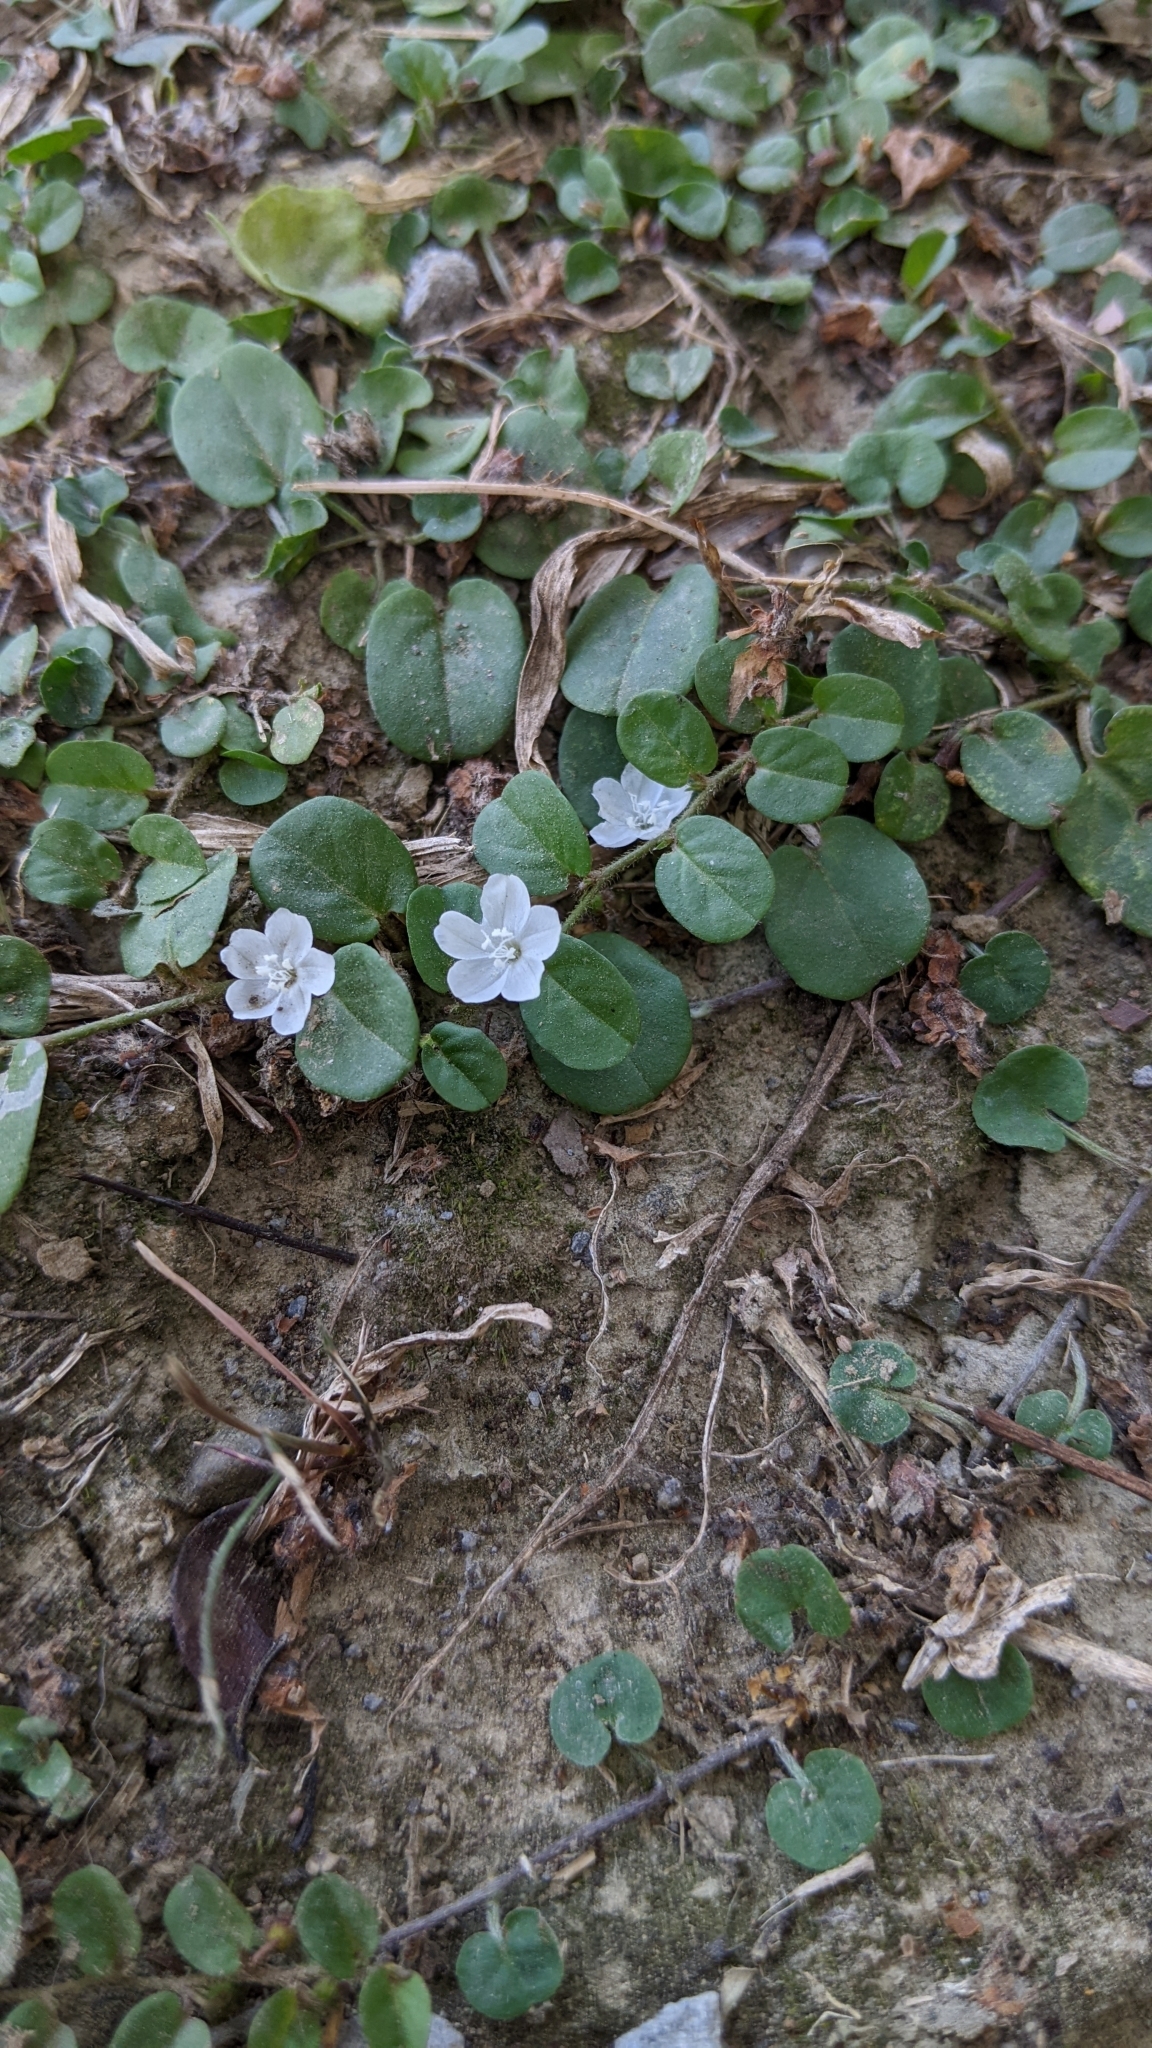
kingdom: Plantae
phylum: Tracheophyta
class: Magnoliopsida
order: Solanales
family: Convolvulaceae
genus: Evolvulus
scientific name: Evolvulus nummularius
